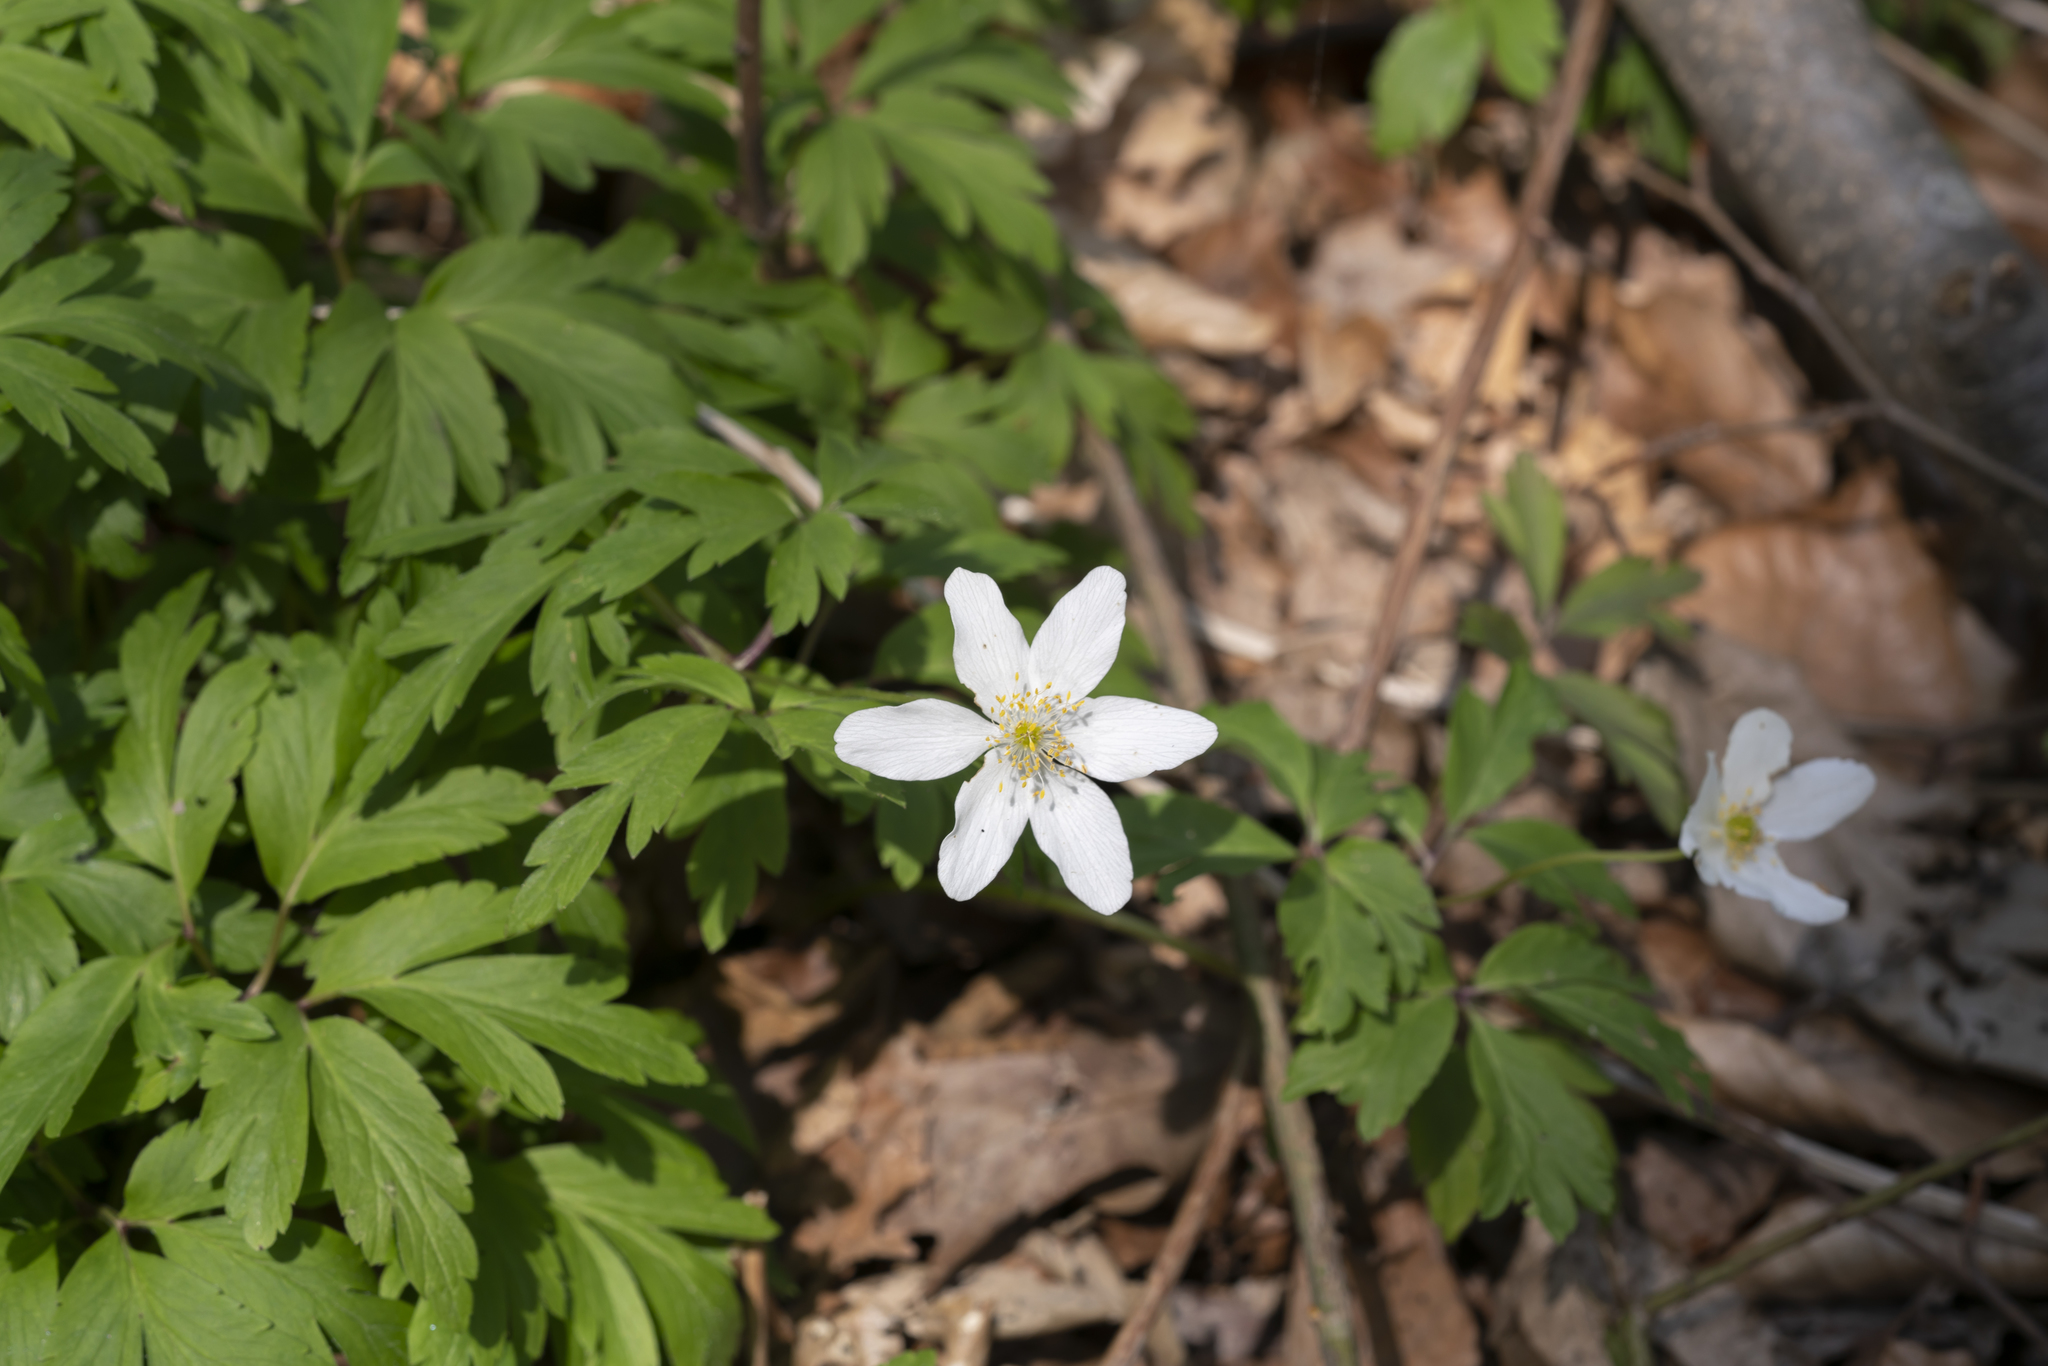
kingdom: Plantae
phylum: Tracheophyta
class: Magnoliopsida
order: Ranunculales
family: Ranunculaceae
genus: Anemone
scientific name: Anemone nemorosa
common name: Wood anemone
